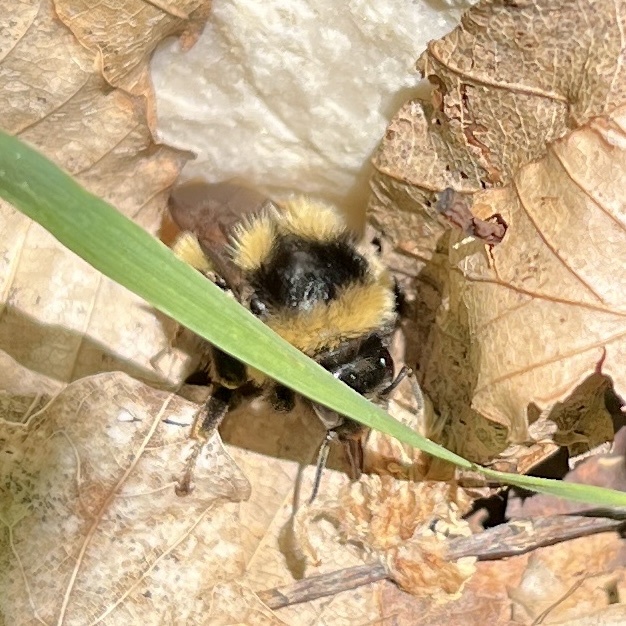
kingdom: Animalia
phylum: Arthropoda
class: Insecta
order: Hymenoptera
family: Apidae
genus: Bombus
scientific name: Bombus ternarius
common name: Tri-colored bumble bee
